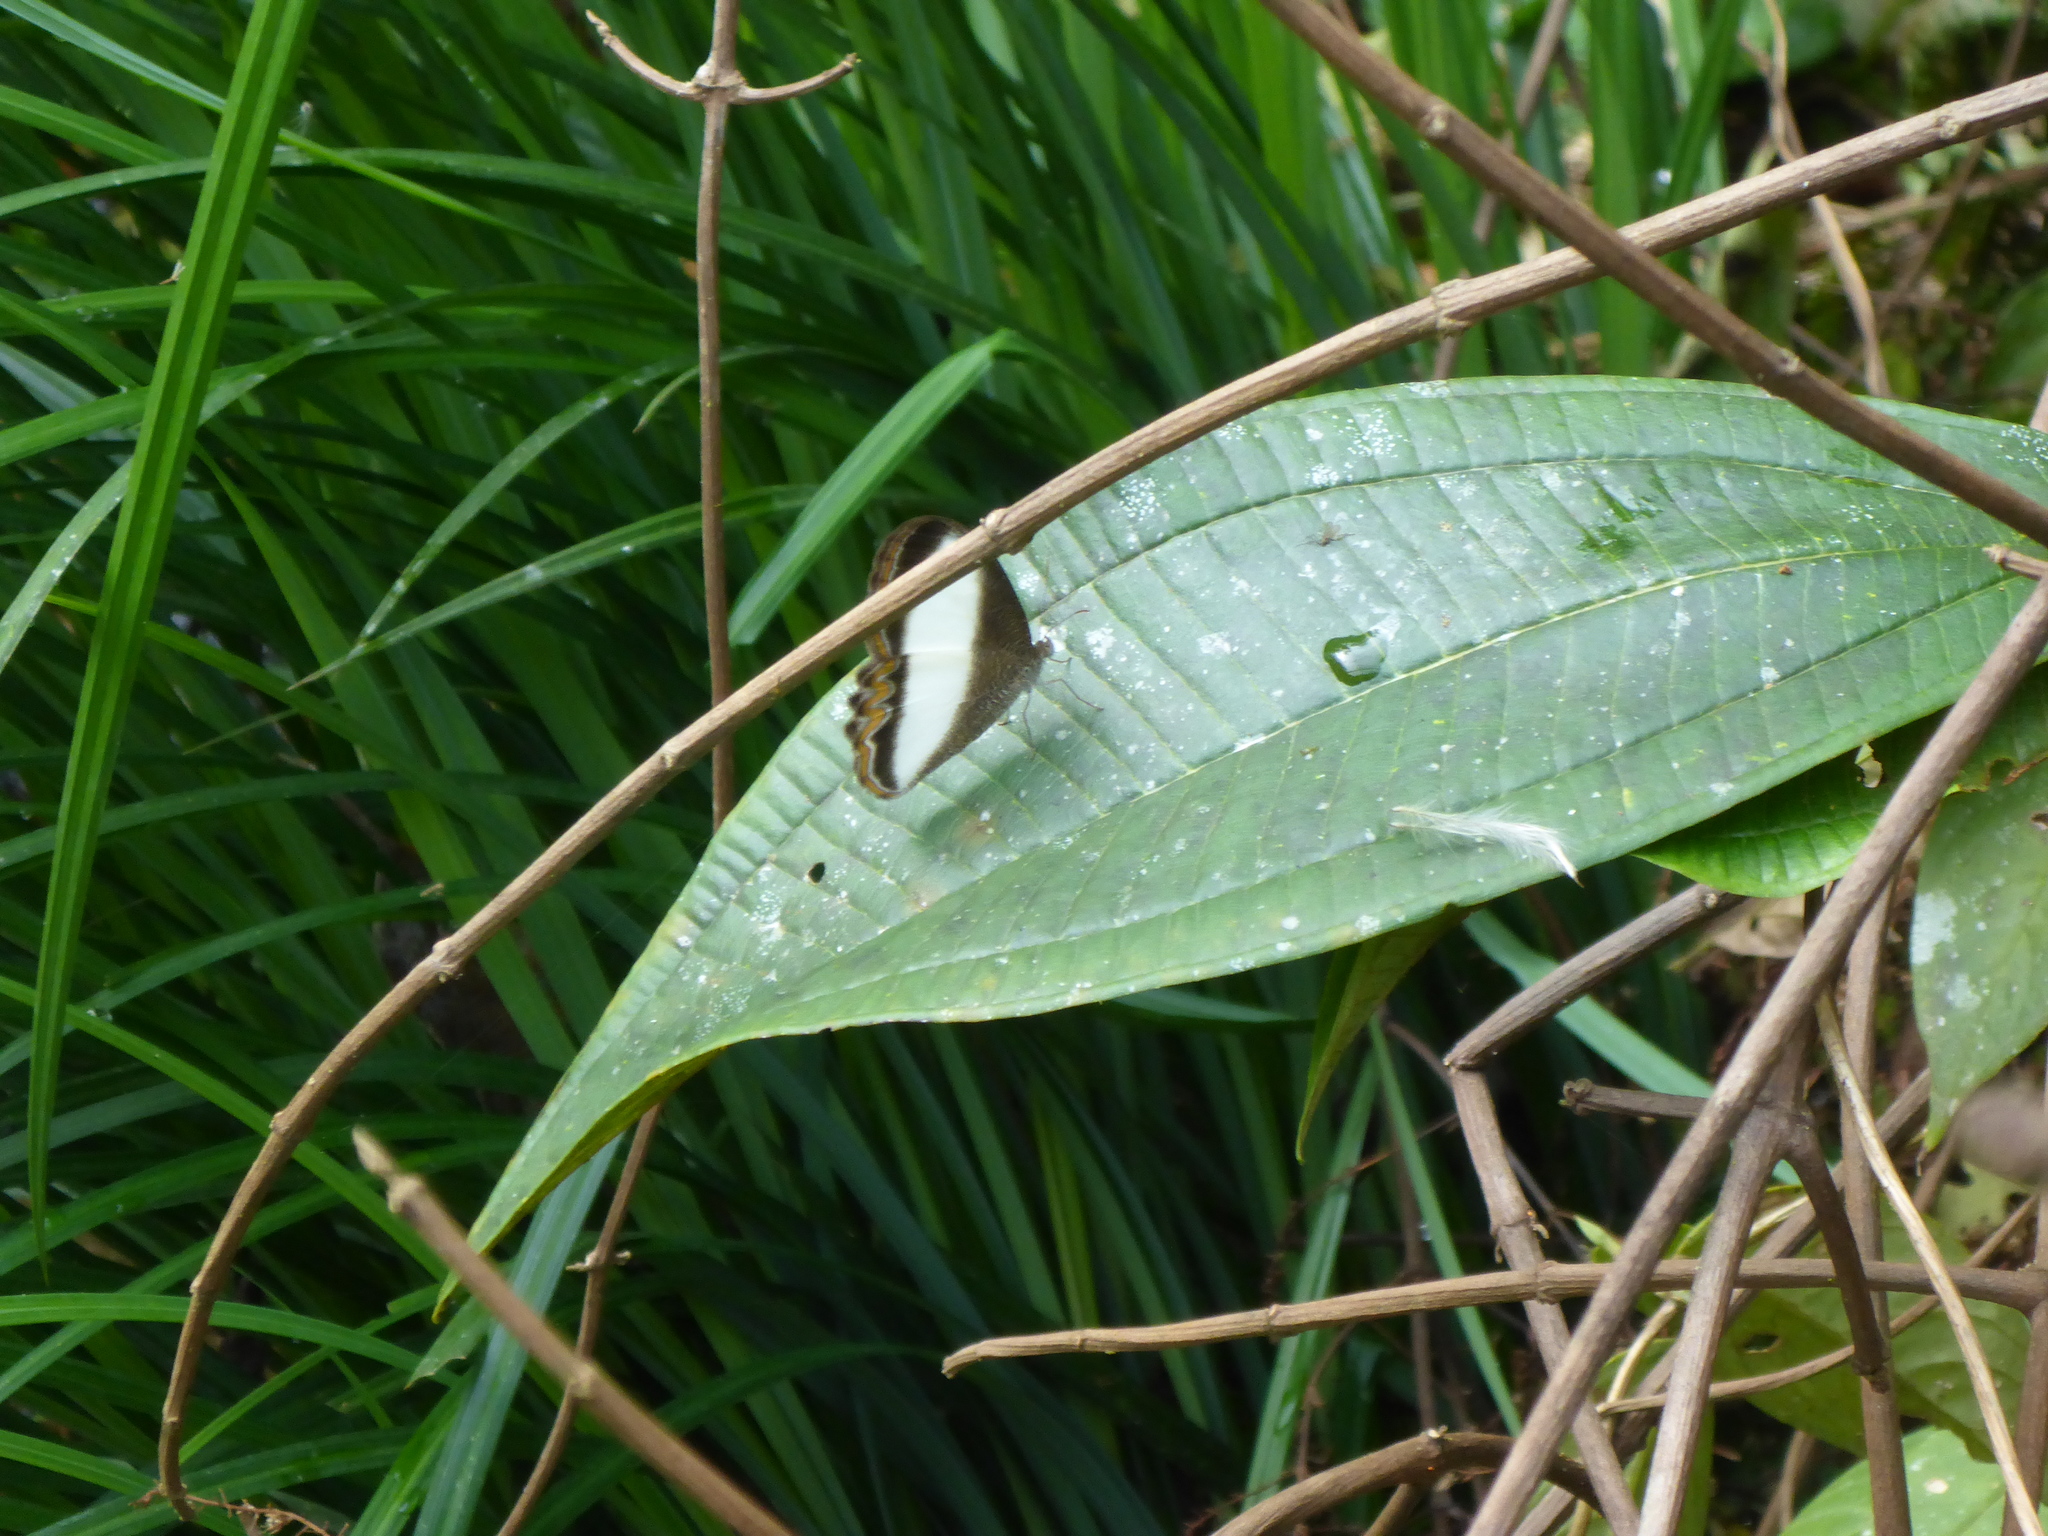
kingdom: Animalia
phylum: Arthropoda
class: Insecta
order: Lepidoptera
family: Nymphalidae
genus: Oressinoma
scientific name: Oressinoma typhla
